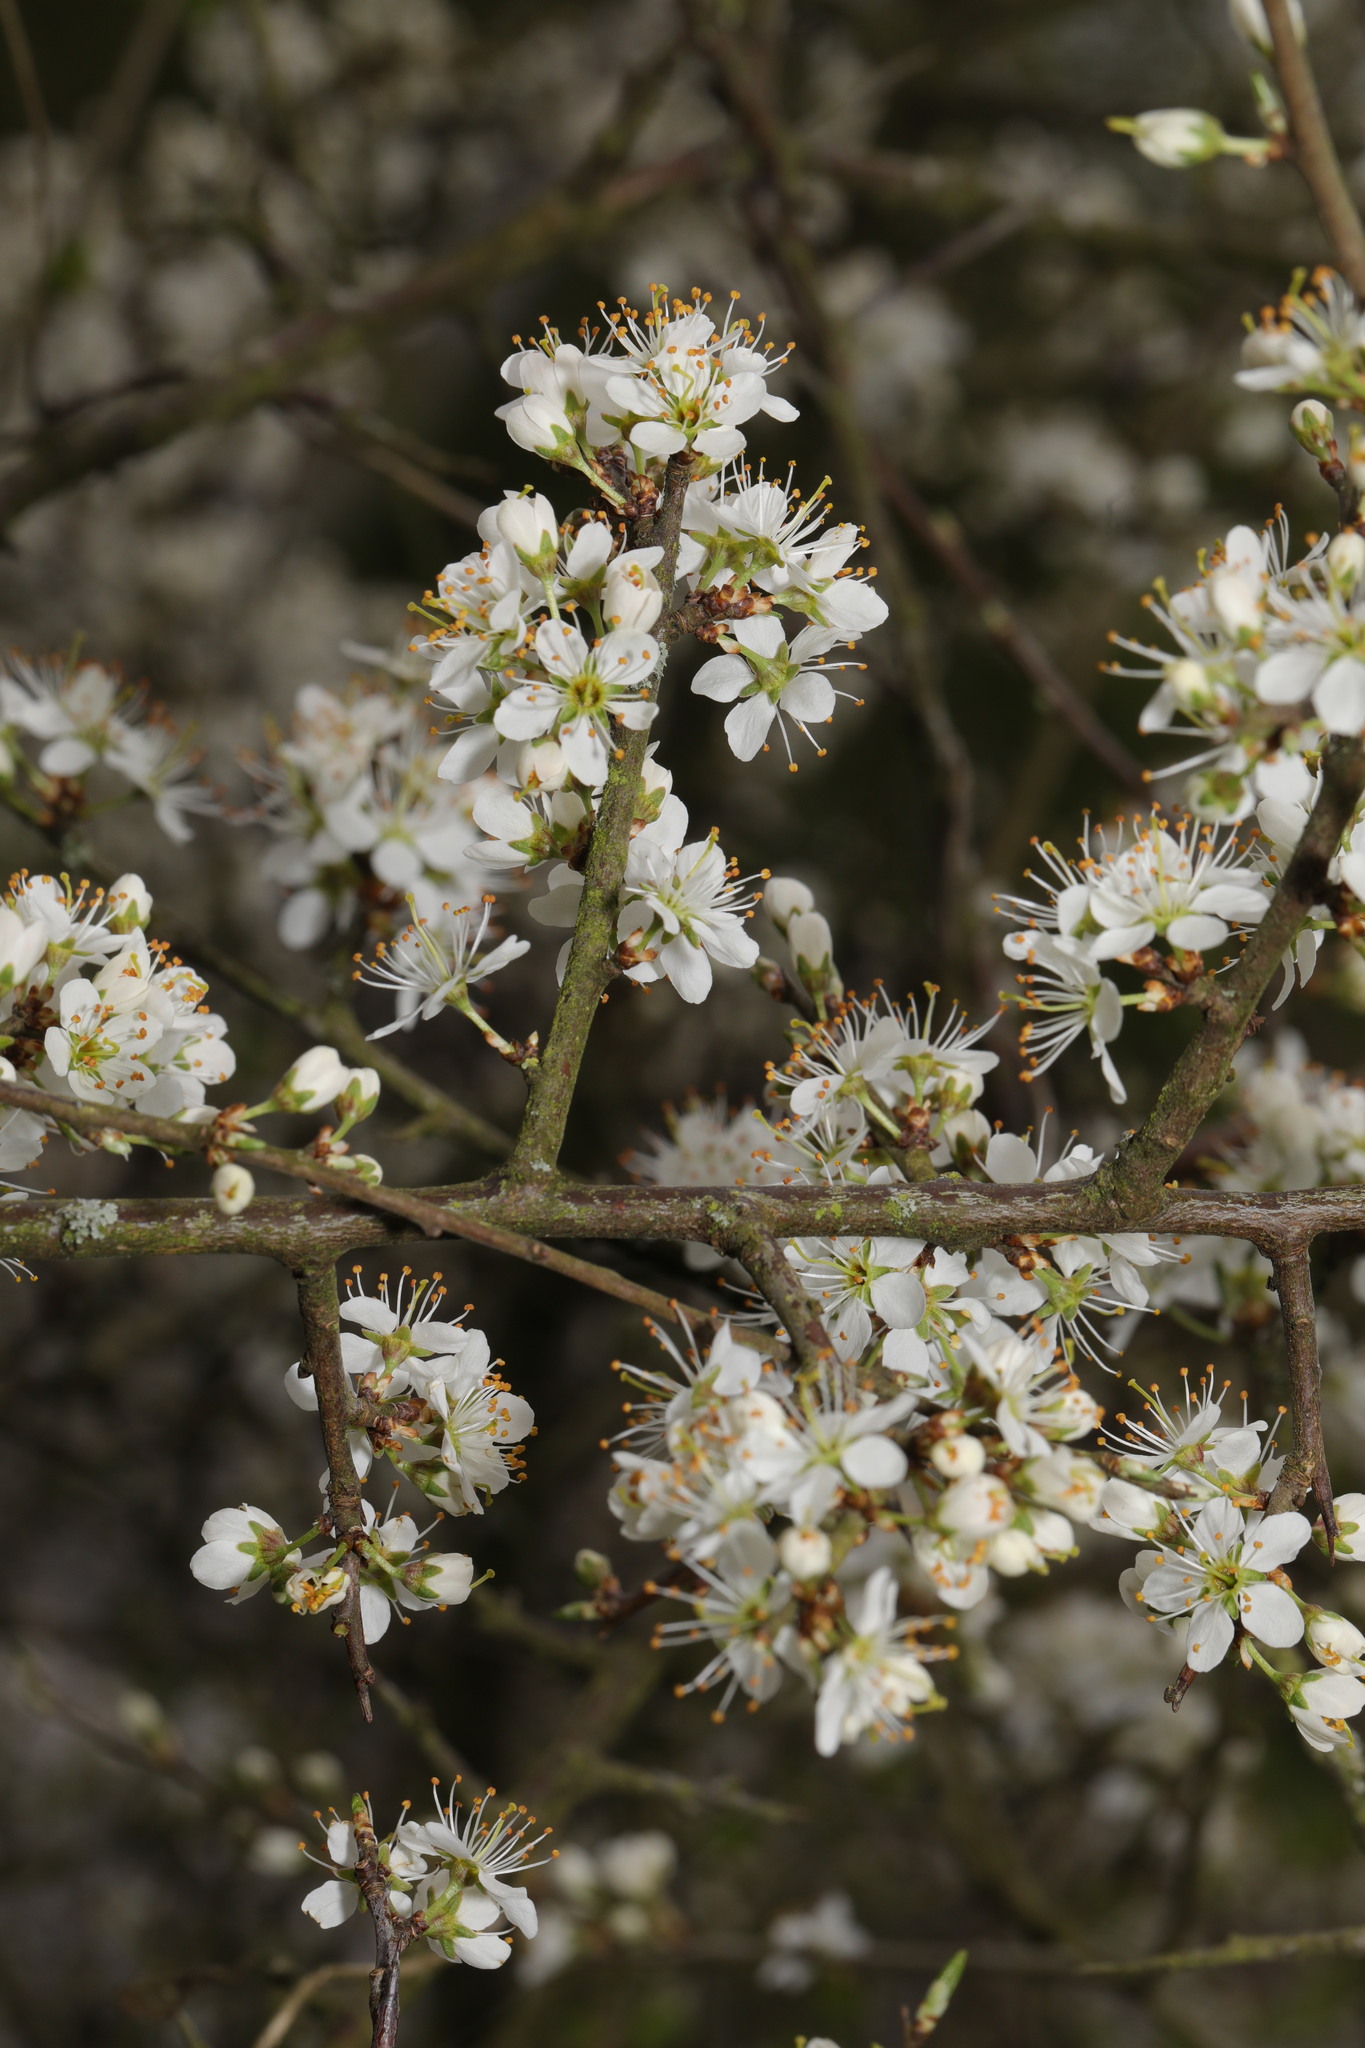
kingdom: Plantae
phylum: Tracheophyta
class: Magnoliopsida
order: Rosales
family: Rosaceae
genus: Prunus
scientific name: Prunus spinosa
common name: Blackthorn
